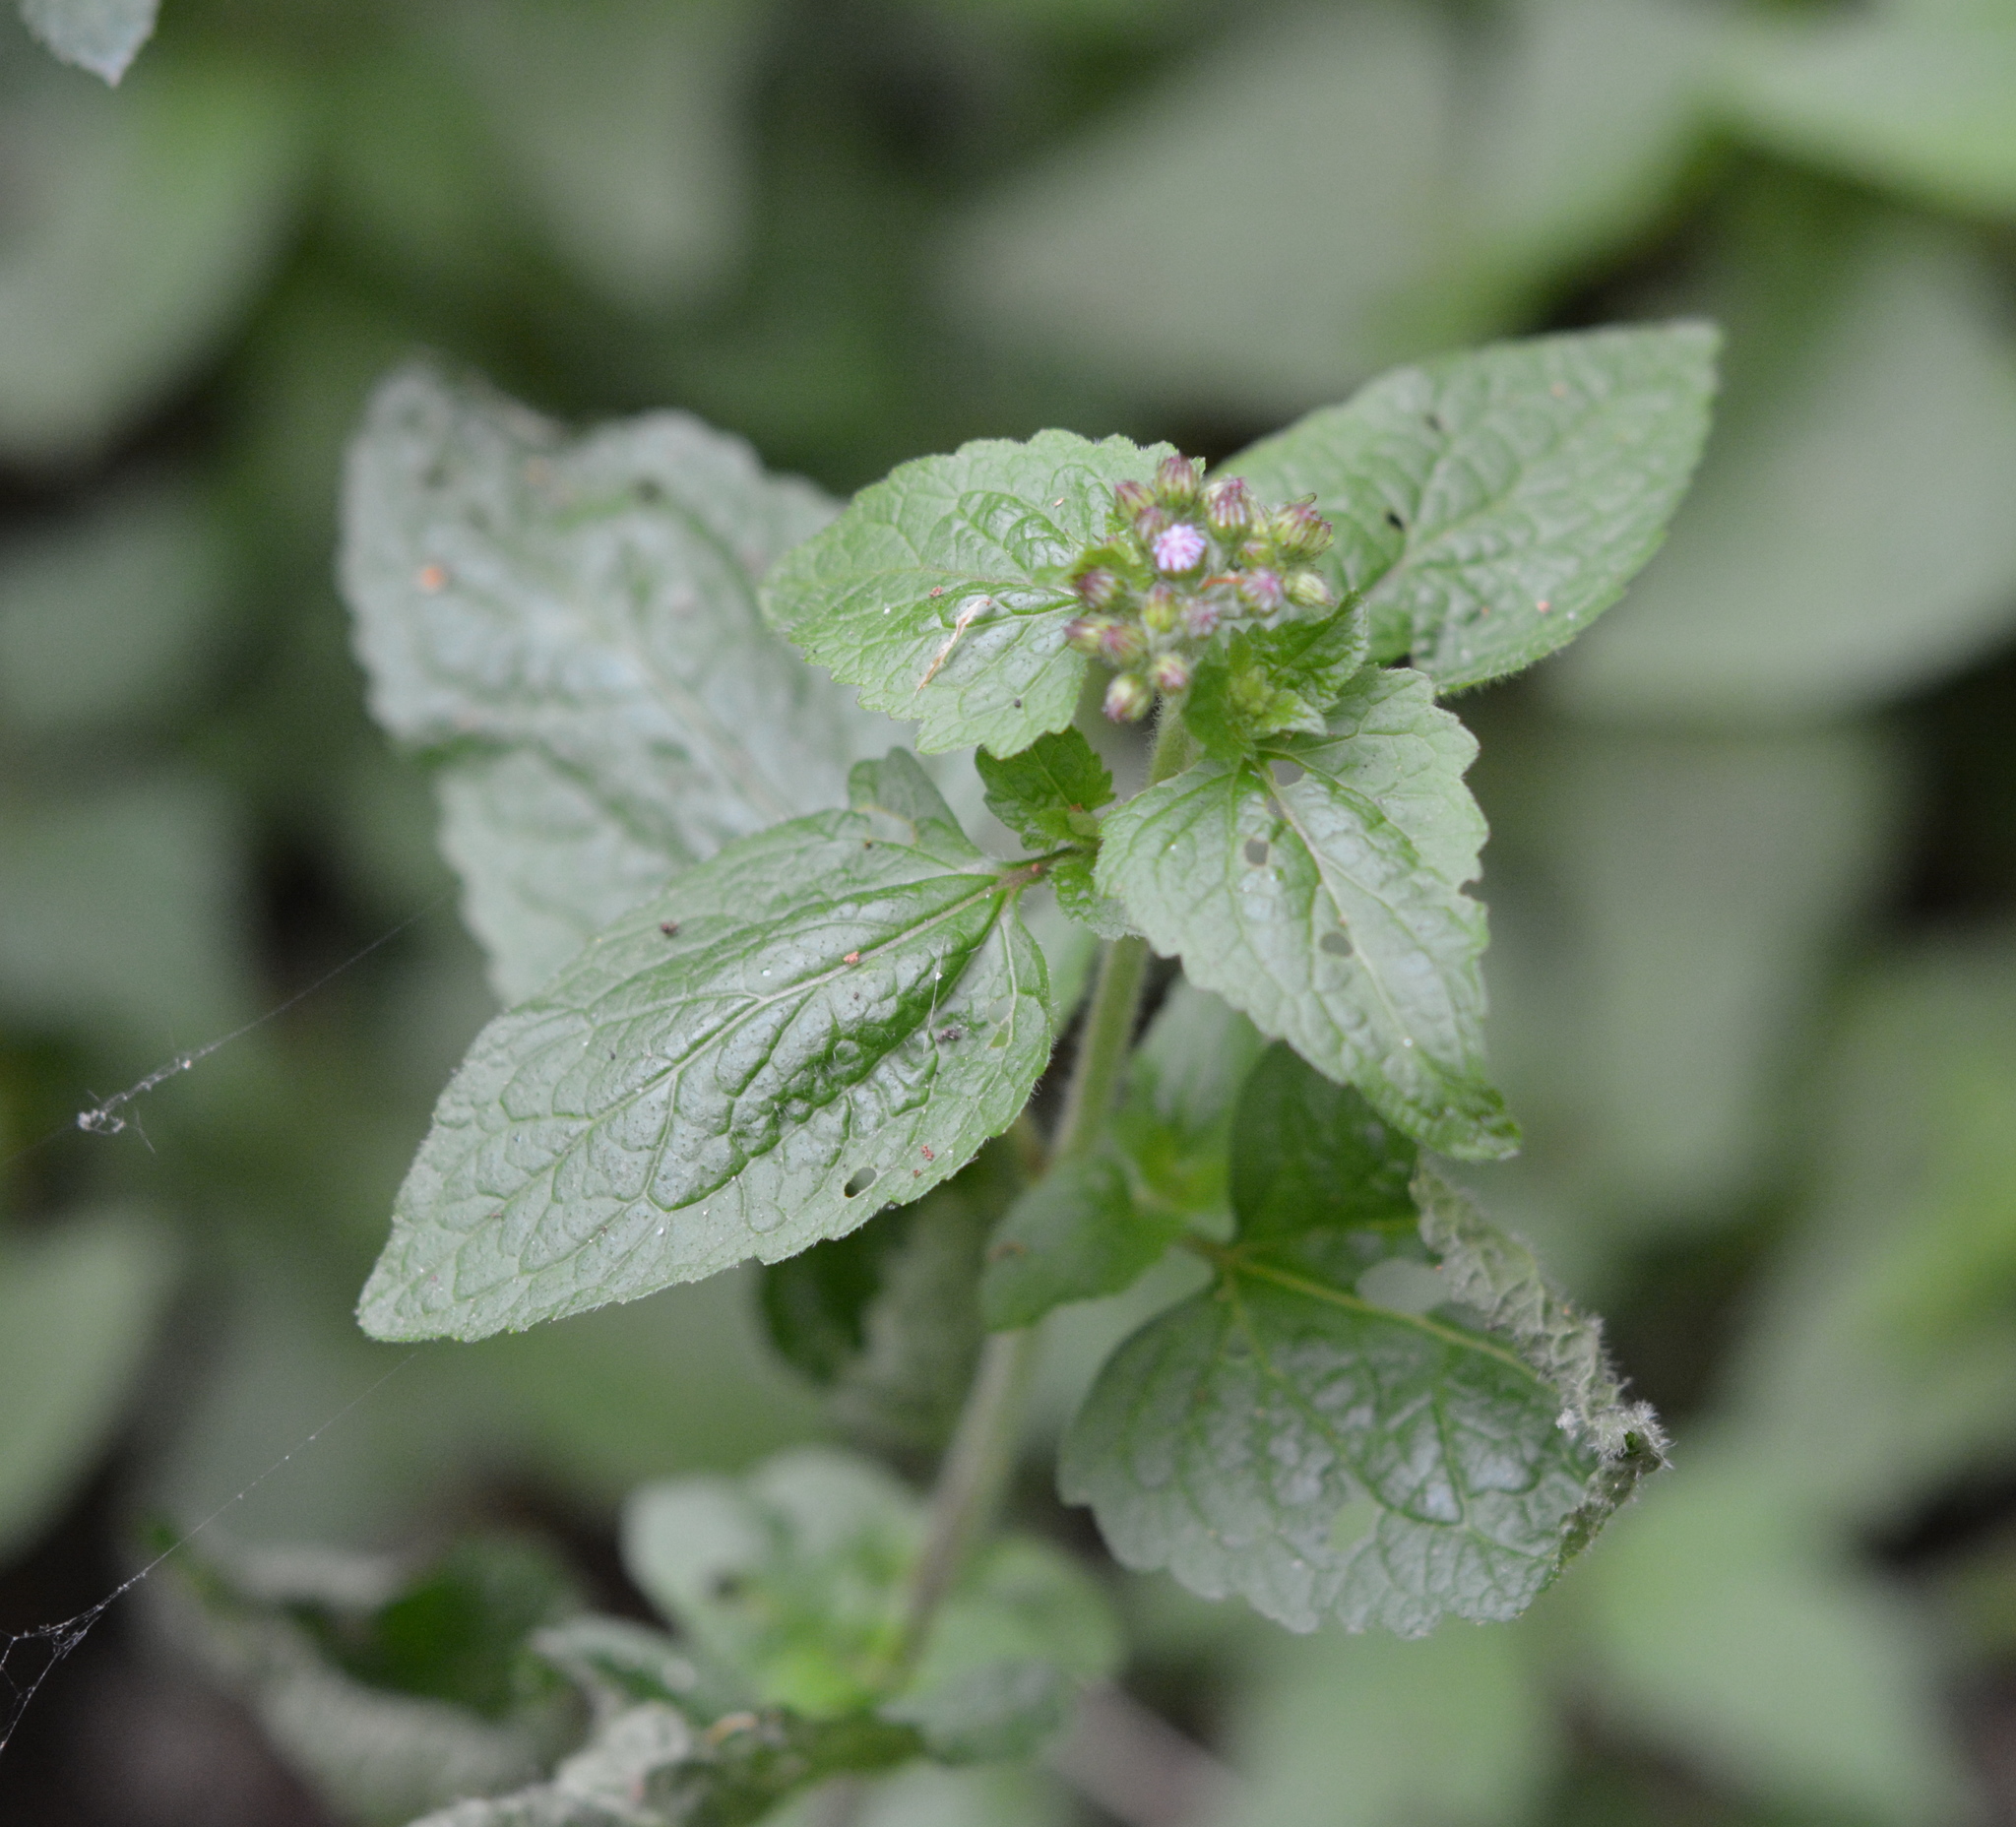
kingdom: Plantae
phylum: Tracheophyta
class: Magnoliopsida
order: Asterales
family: Asteraceae
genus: Conoclinium
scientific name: Conoclinium coelestinum
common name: Blue mistflower
